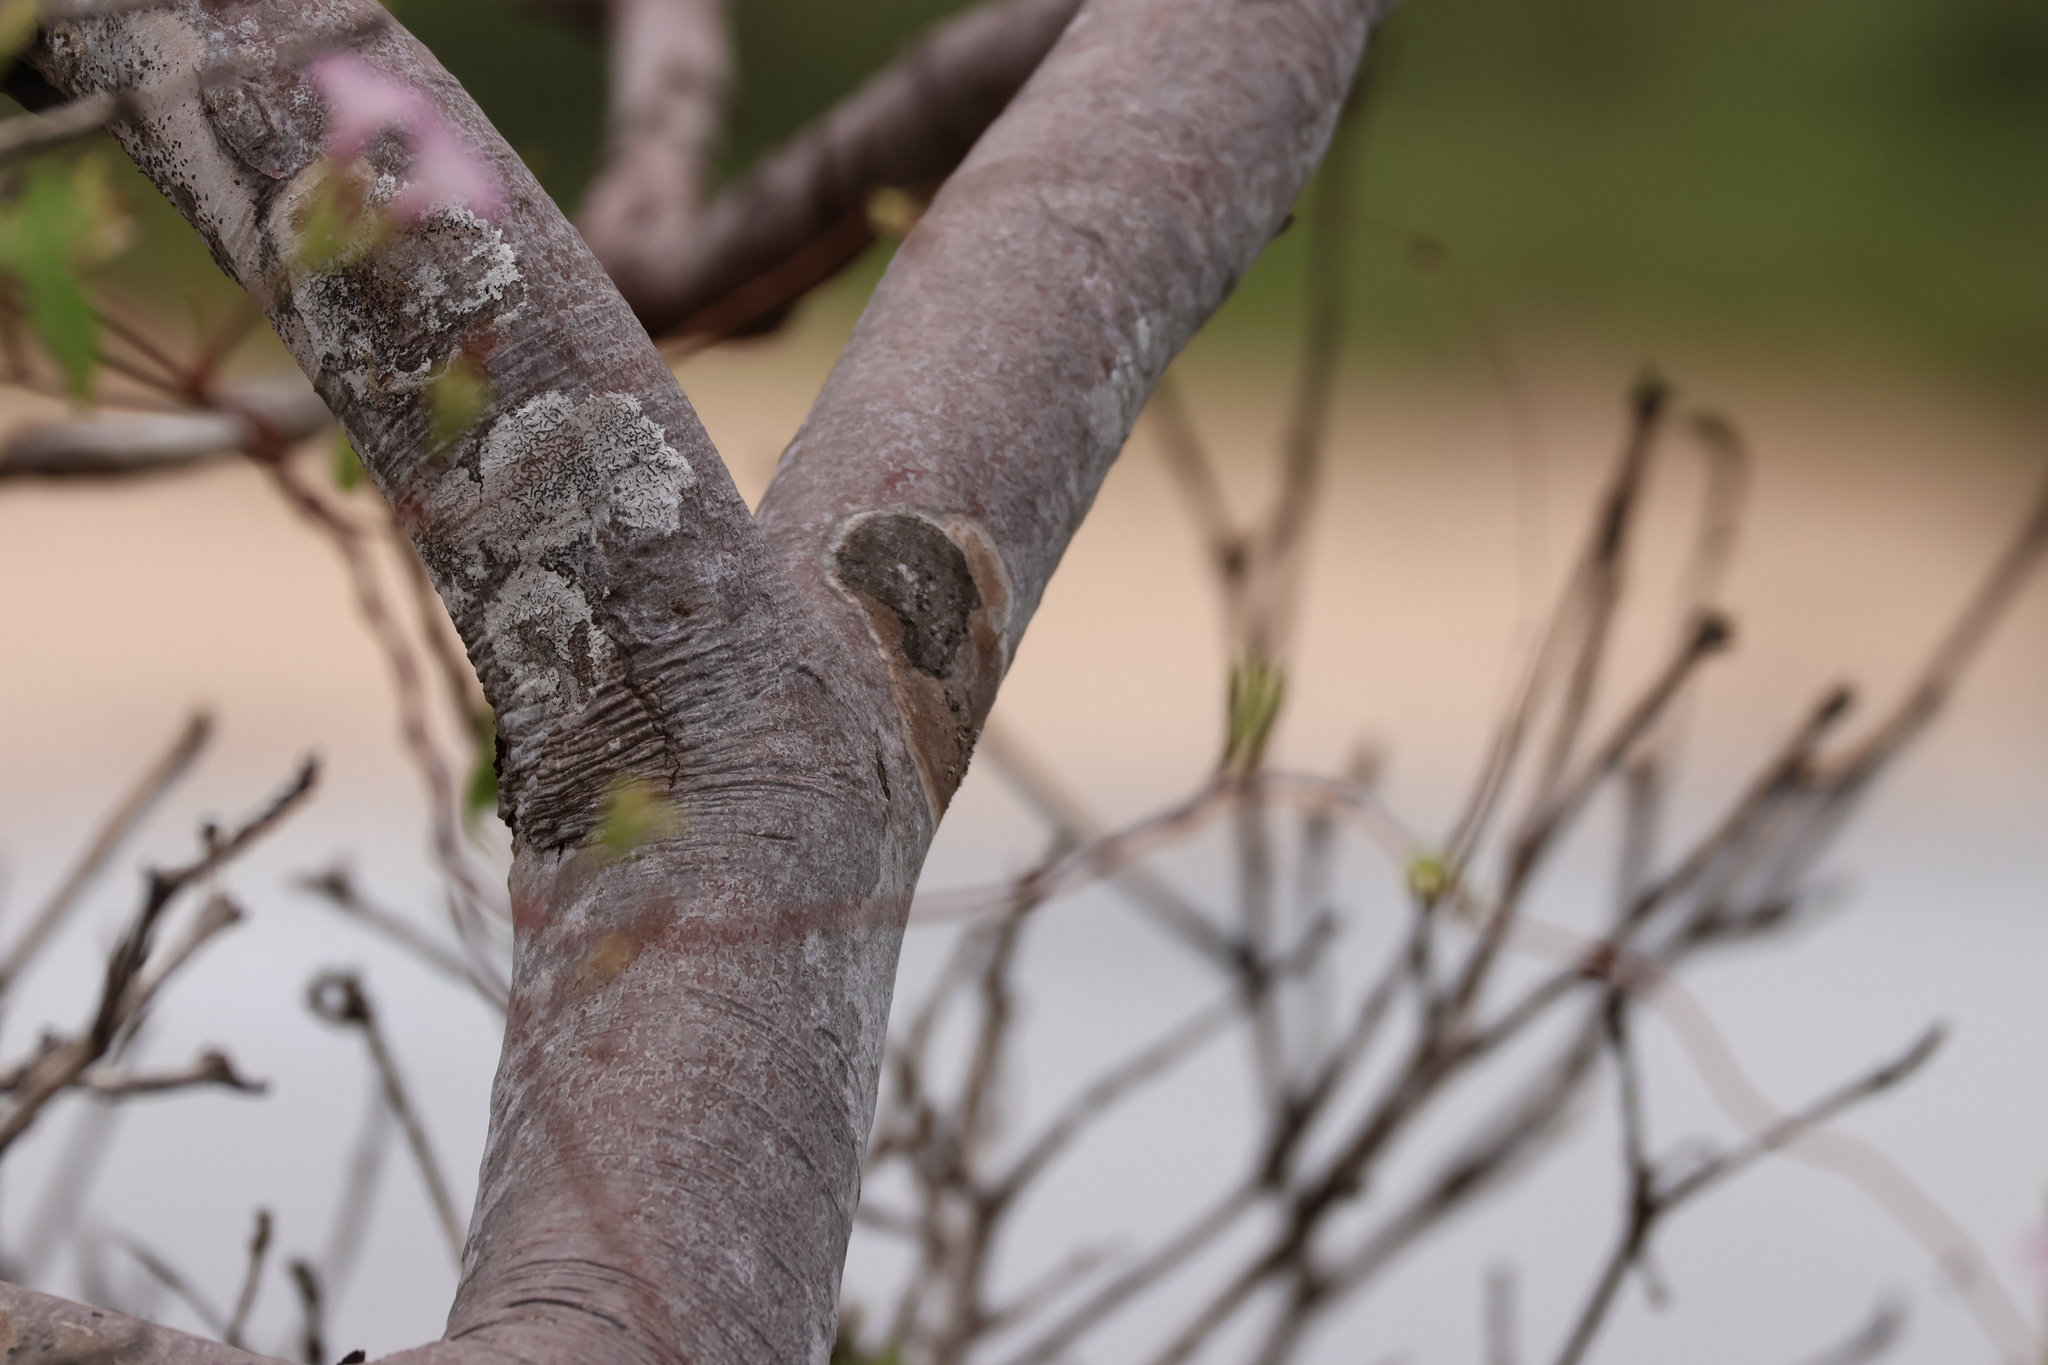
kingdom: Plantae
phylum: Tracheophyta
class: Magnoliopsida
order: Sapindales
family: Burseraceae
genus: Bursera
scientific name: Bursera graveolens
